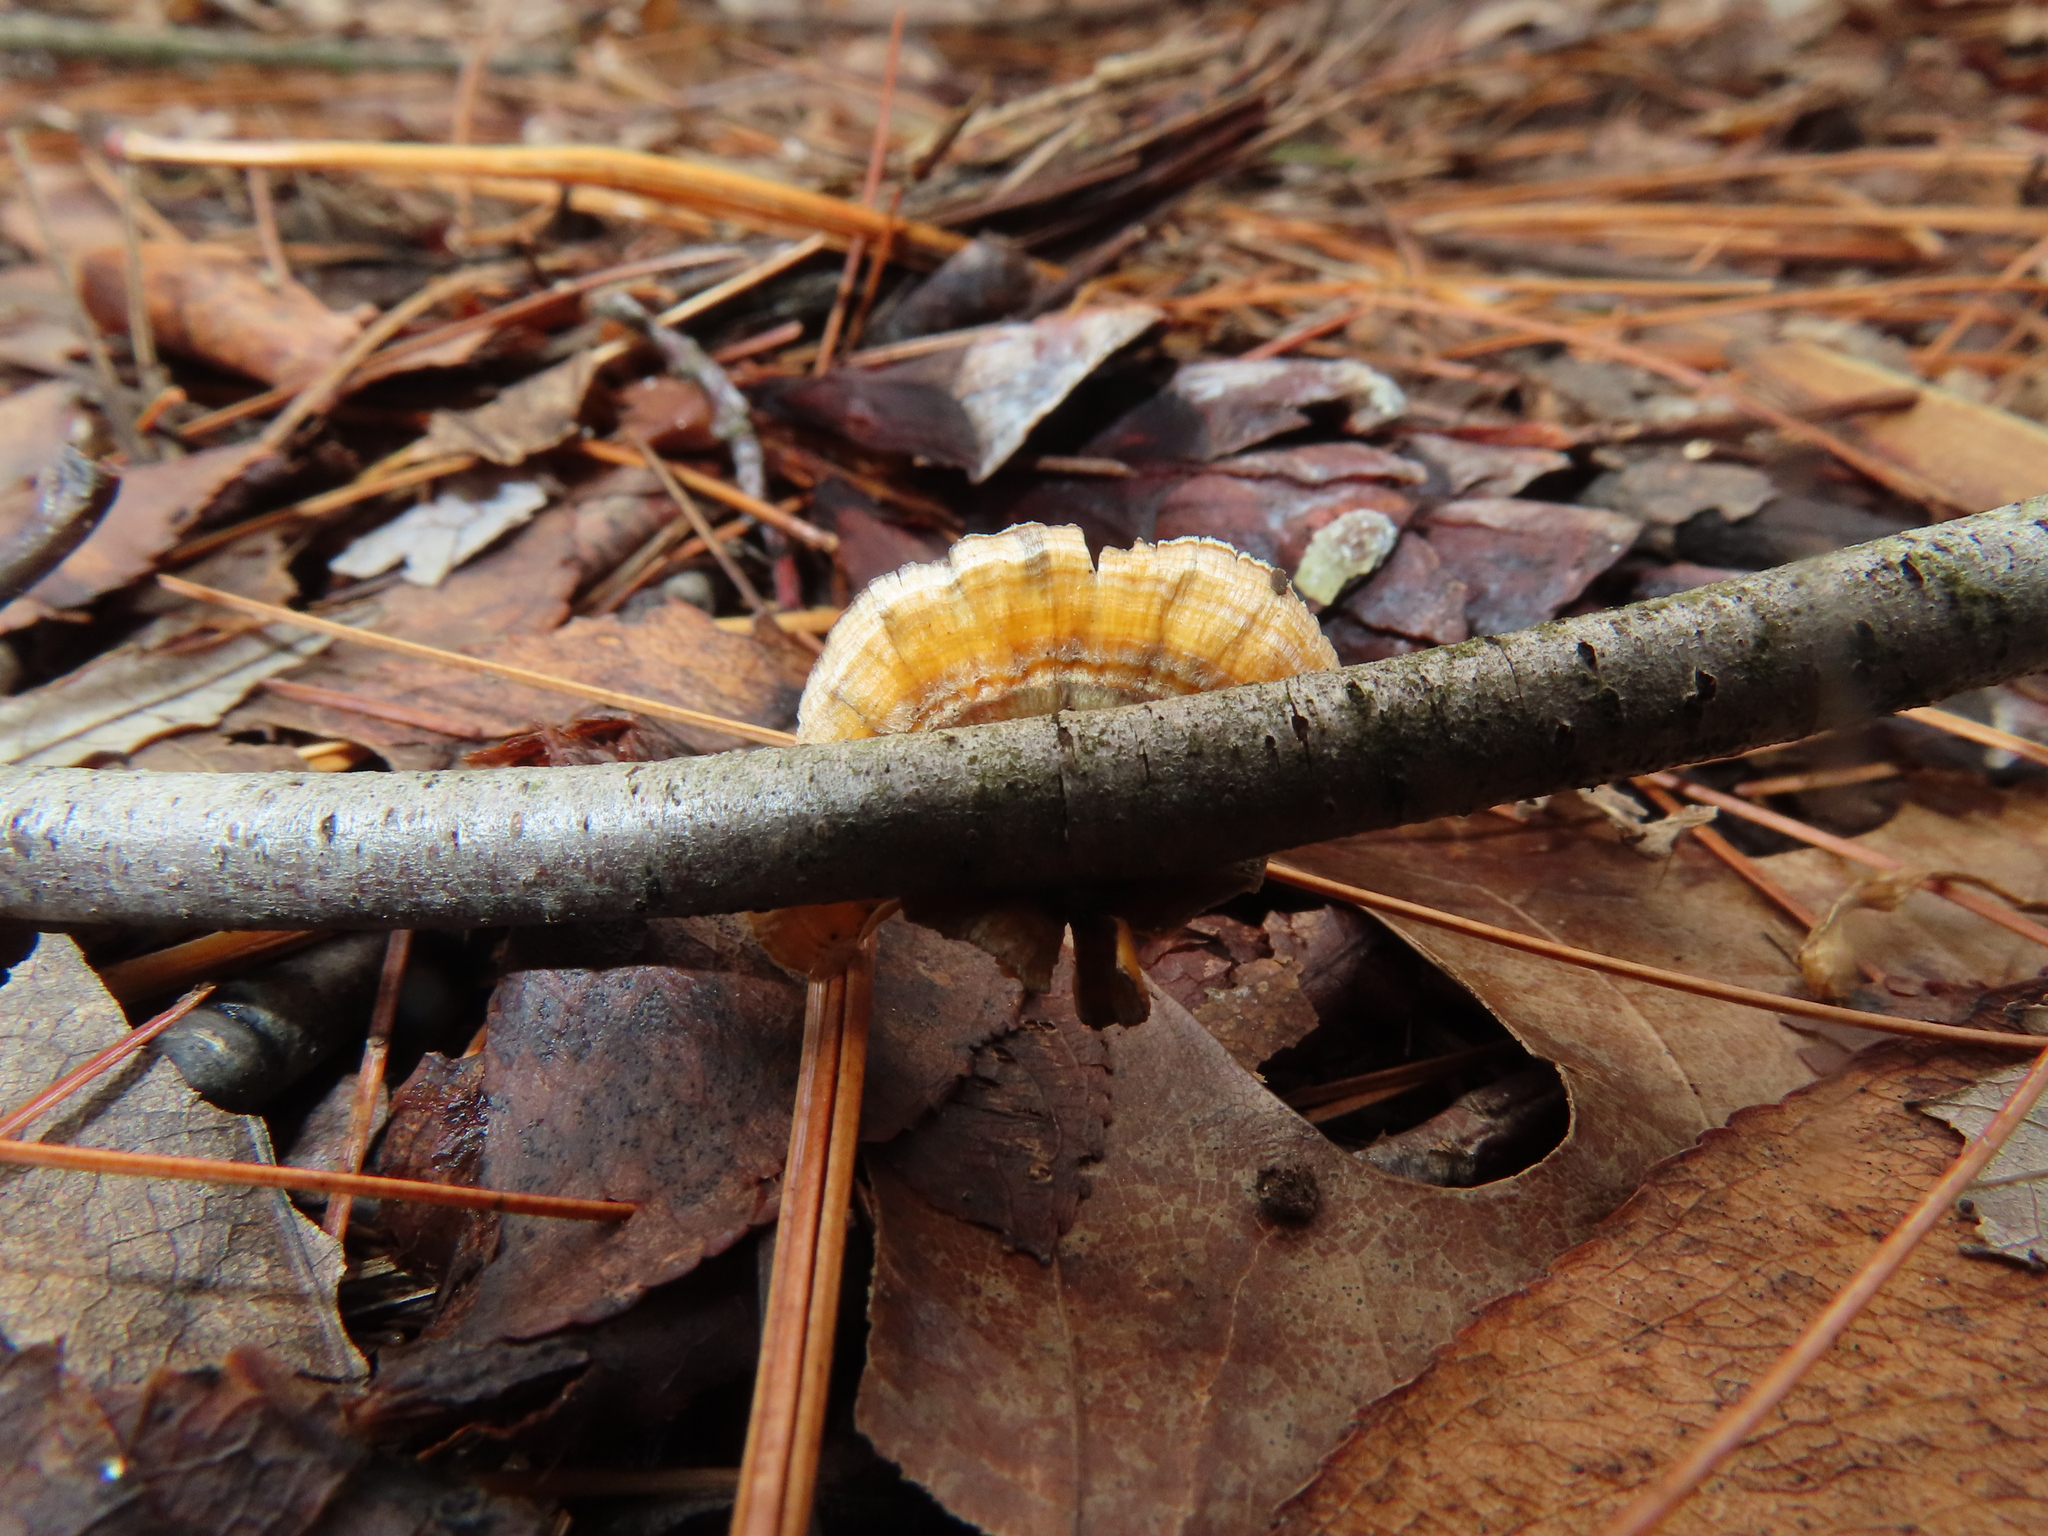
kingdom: Fungi
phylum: Basidiomycota
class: Agaricomycetes
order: Russulales
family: Stereaceae
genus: Stereum
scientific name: Stereum complicatum
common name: Crowded parchment
